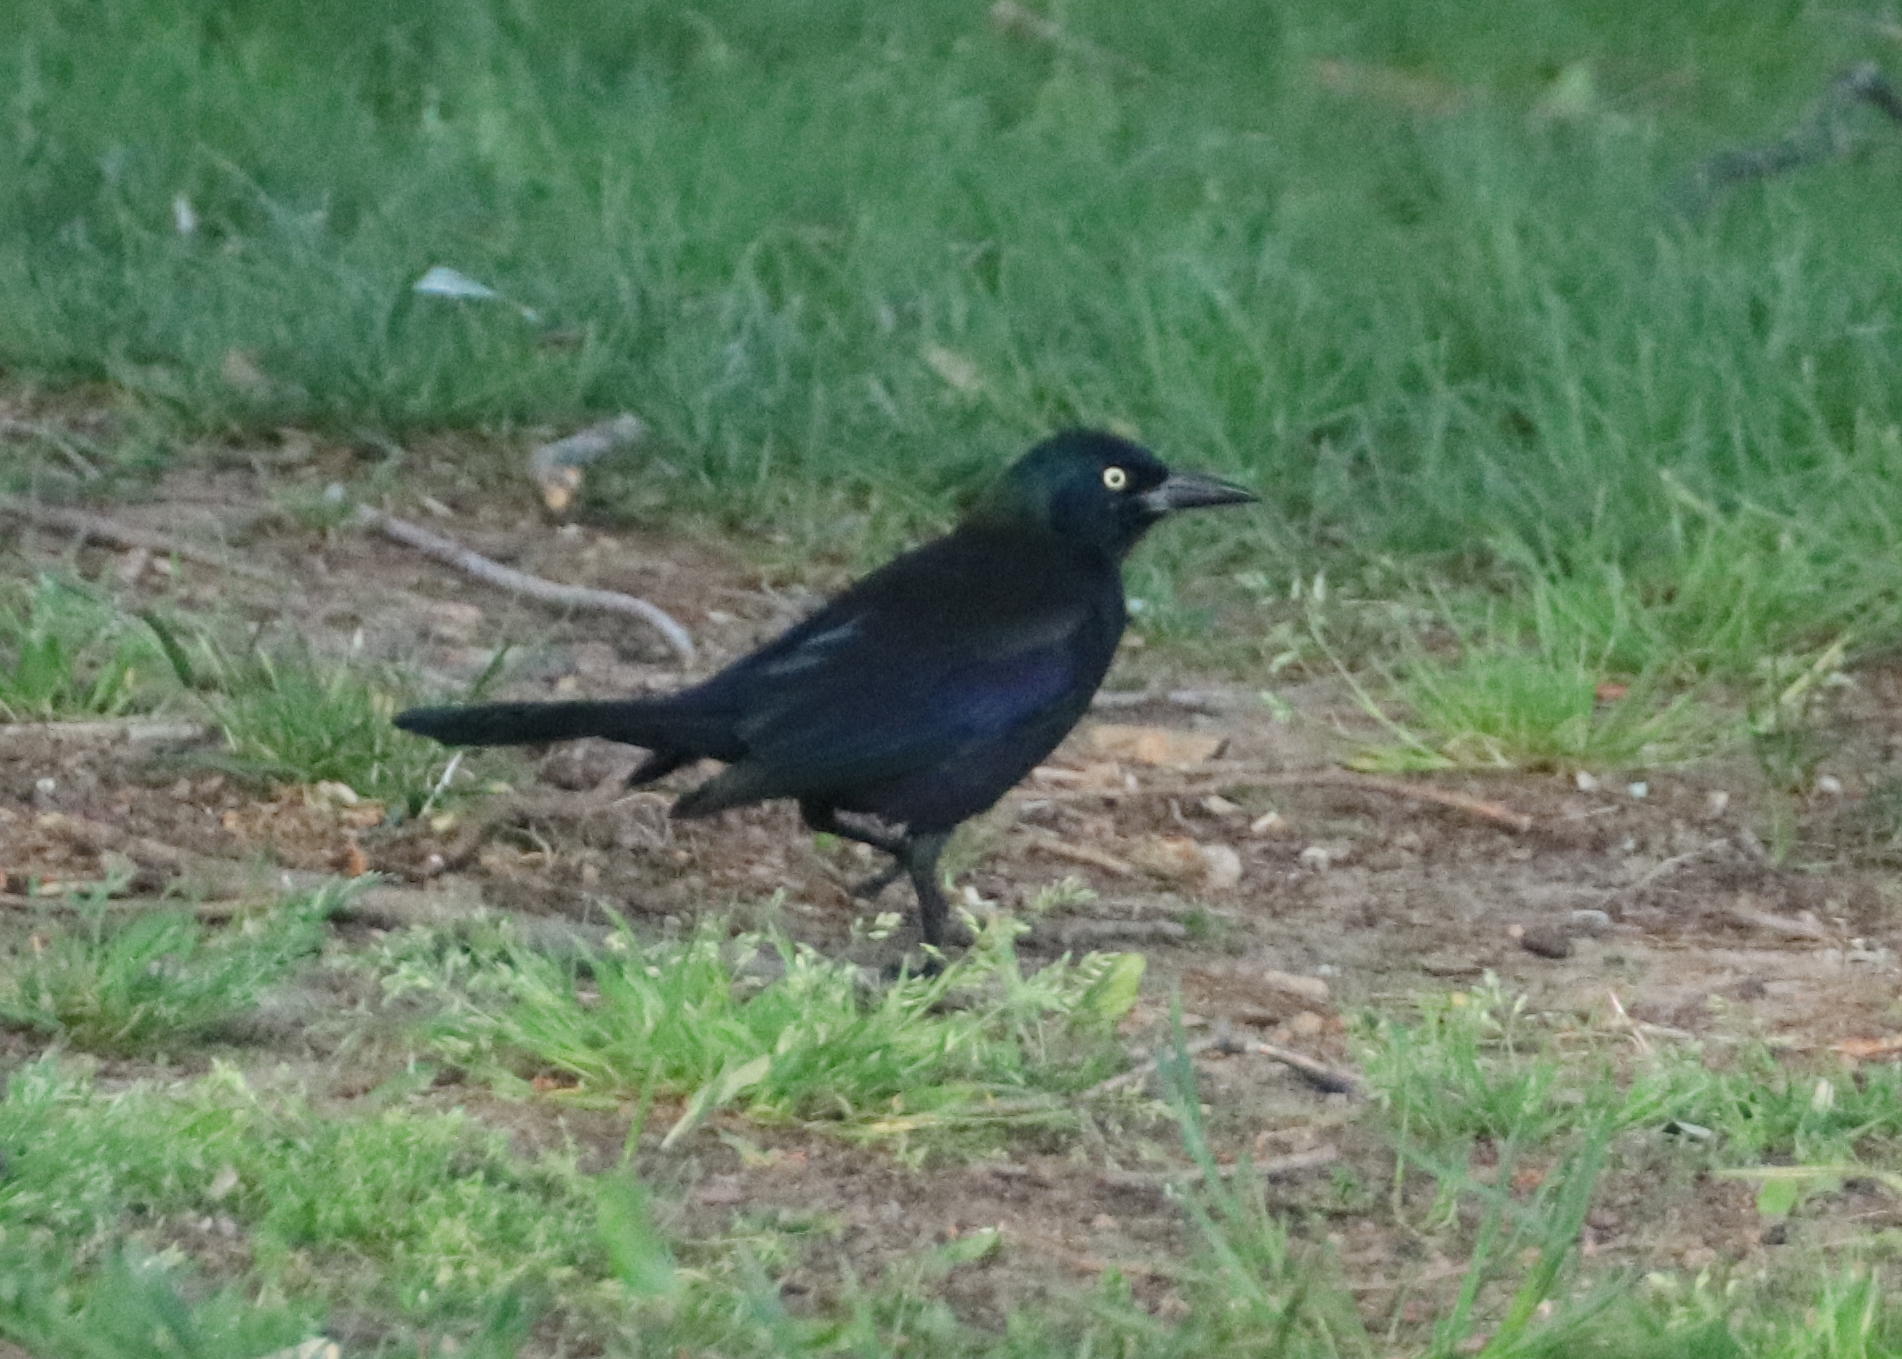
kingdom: Animalia
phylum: Chordata
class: Aves
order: Passeriformes
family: Icteridae
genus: Quiscalus
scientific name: Quiscalus quiscula
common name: Common grackle
